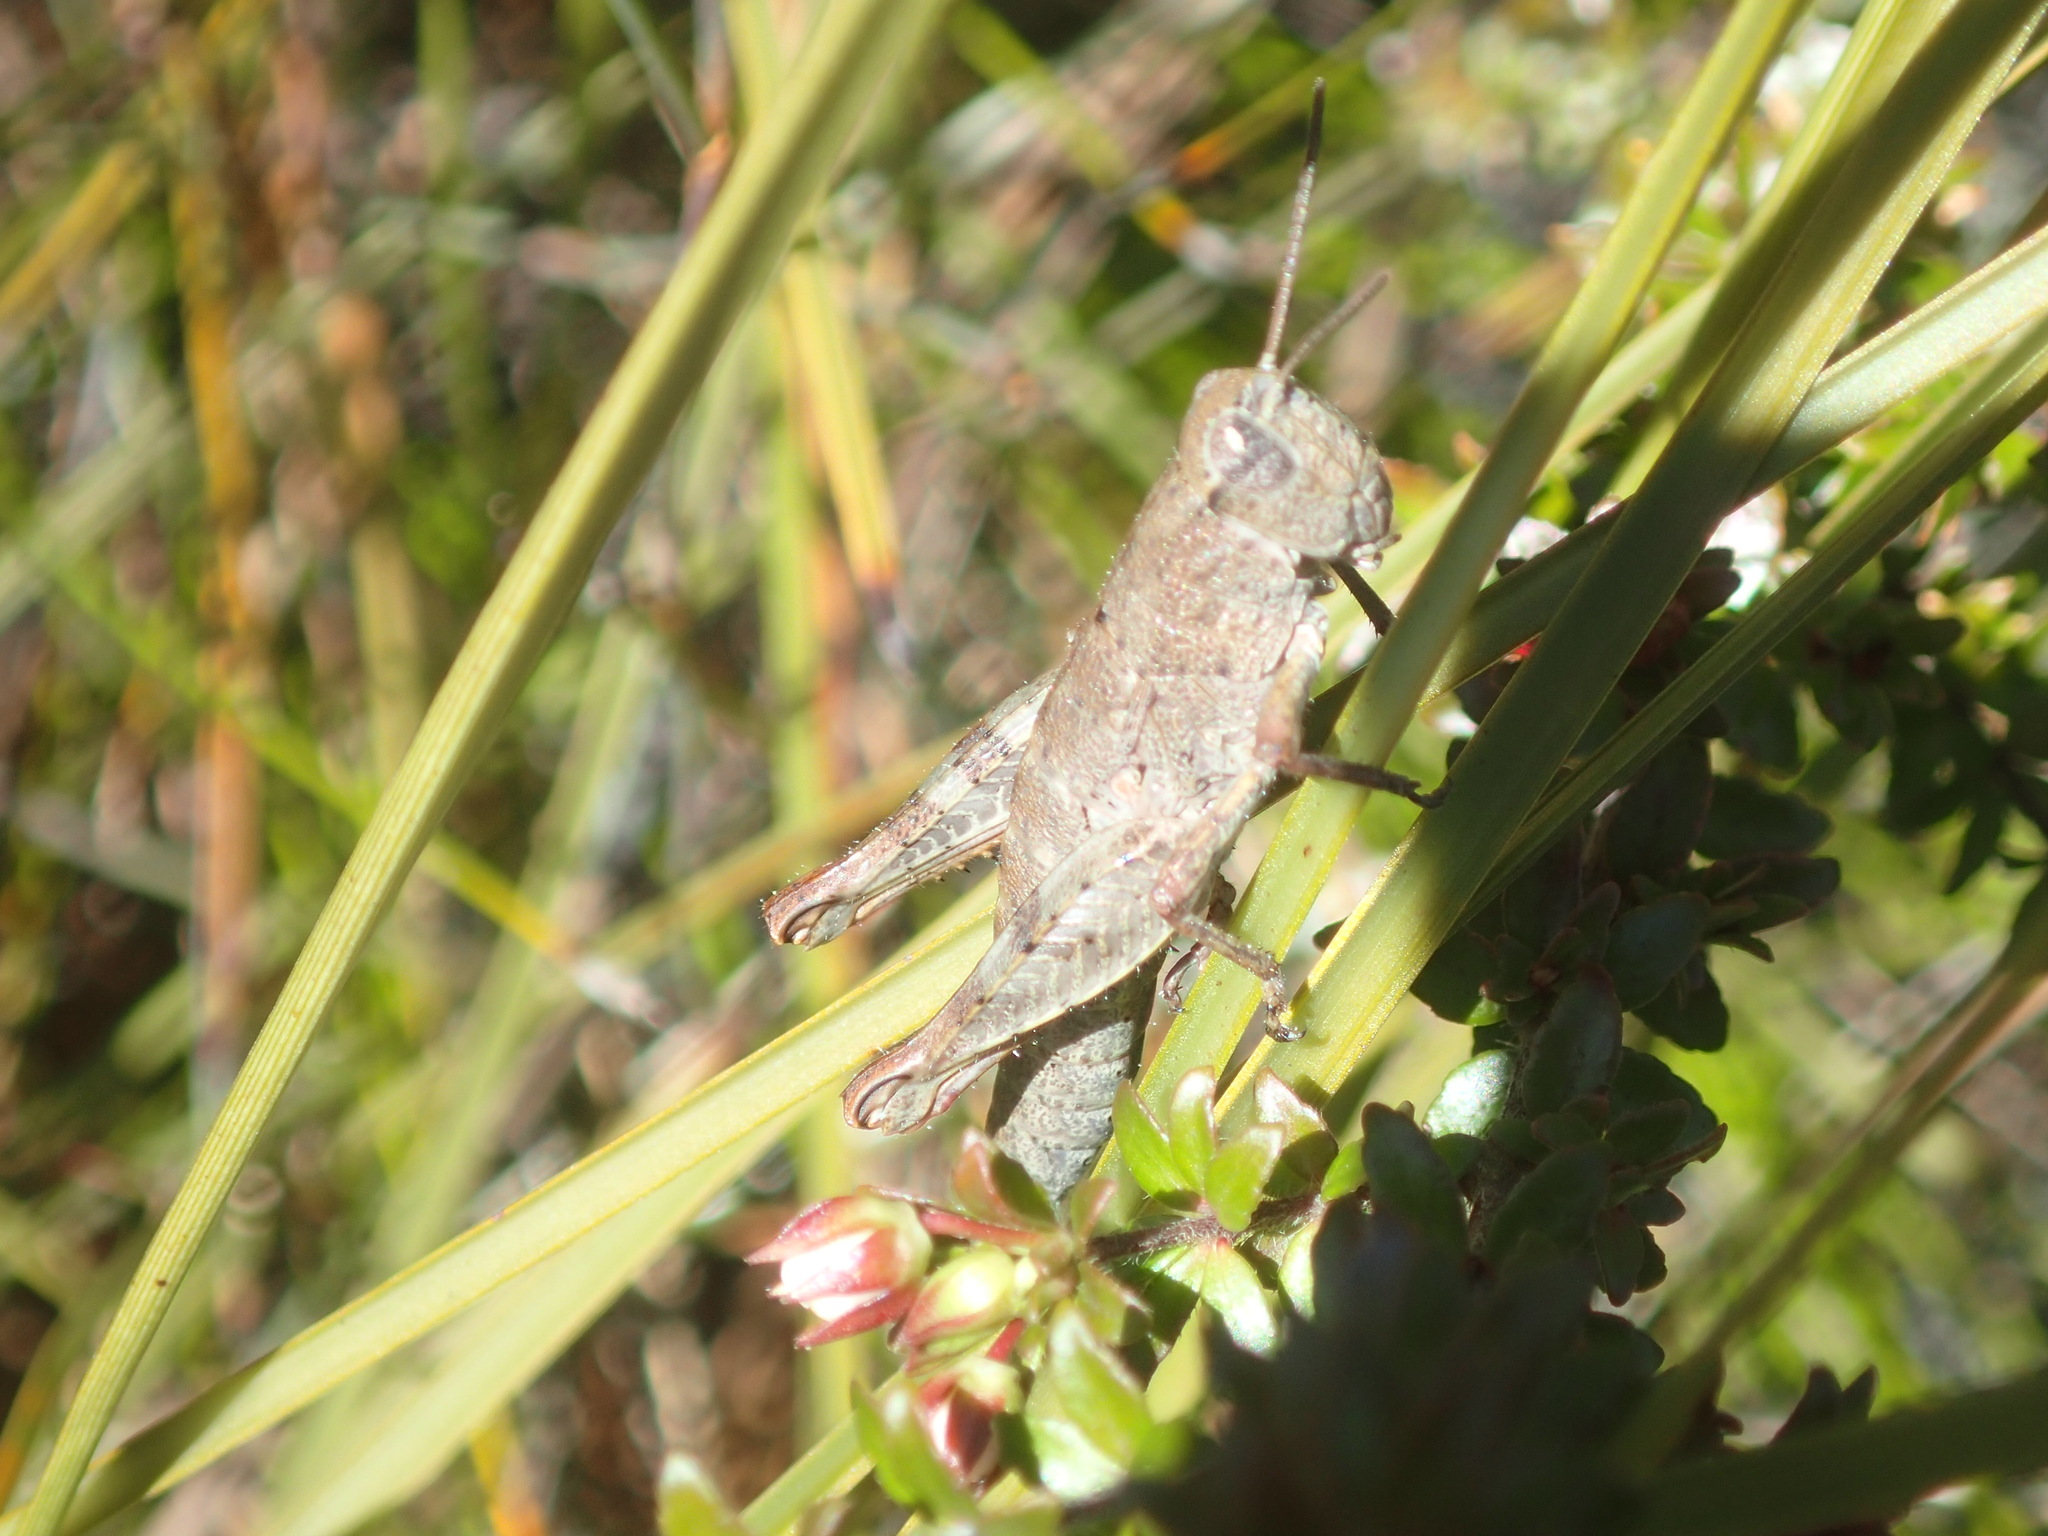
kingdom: Animalia
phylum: Arthropoda
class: Insecta
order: Orthoptera
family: Acrididae
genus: Tasmaniacris
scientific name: Tasmaniacris tasmaniensis
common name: Tasmanian grasshopper
